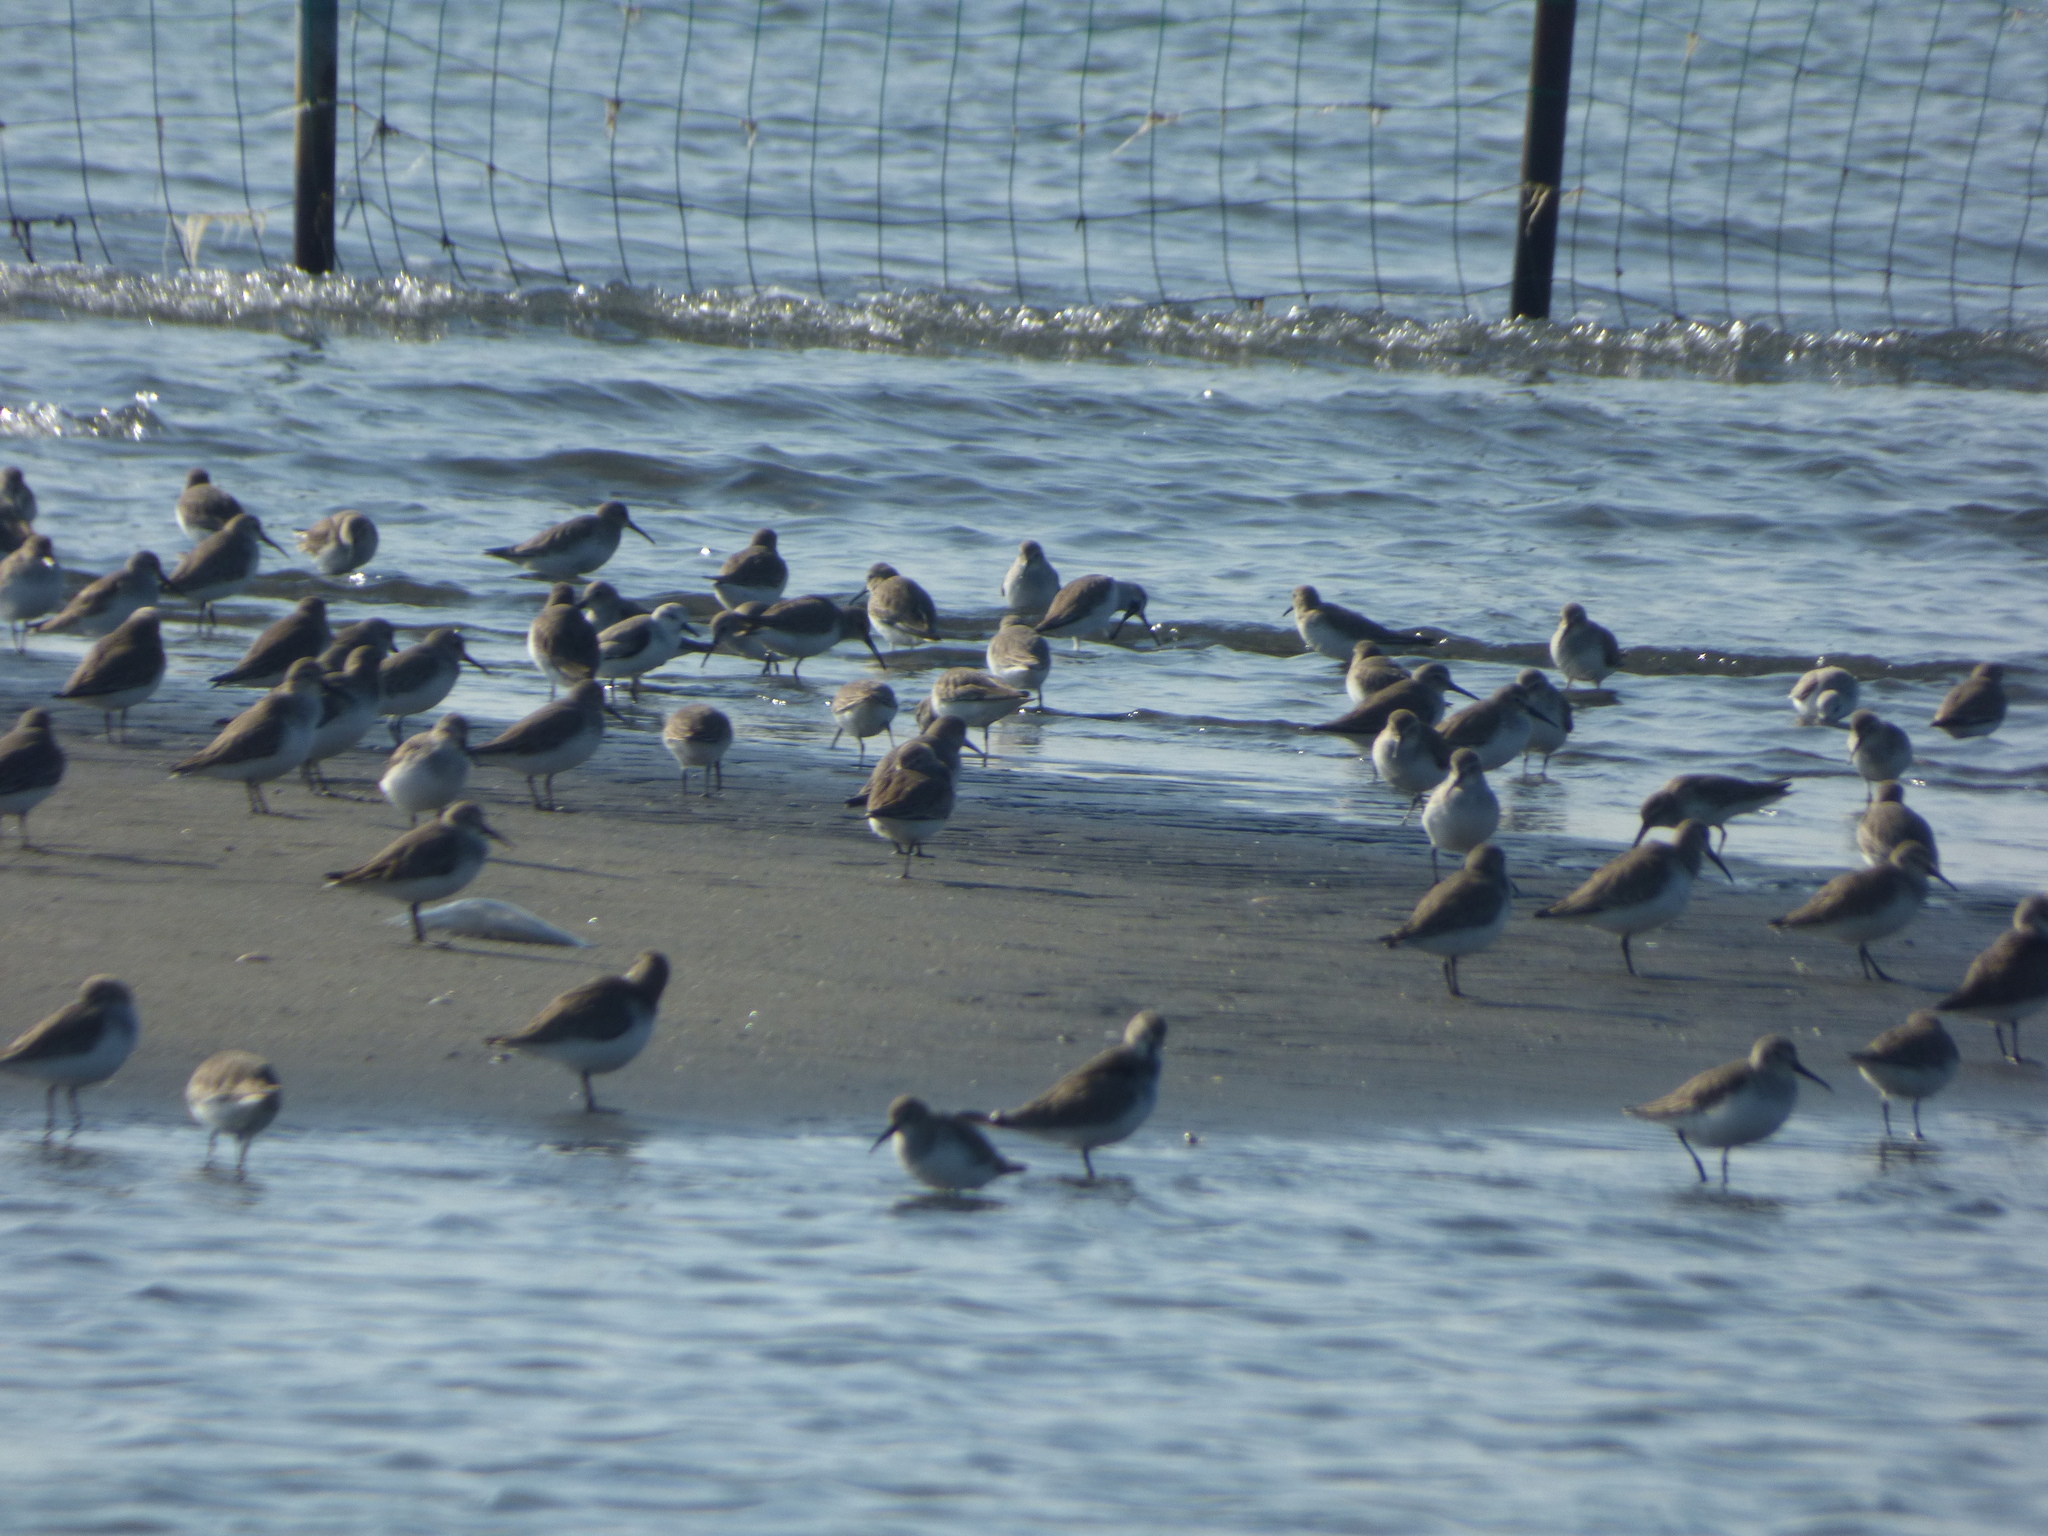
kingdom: Animalia
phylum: Chordata
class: Aves
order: Charadriiformes
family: Scolopacidae
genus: Calidris
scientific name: Calidris alba
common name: Sanderling
